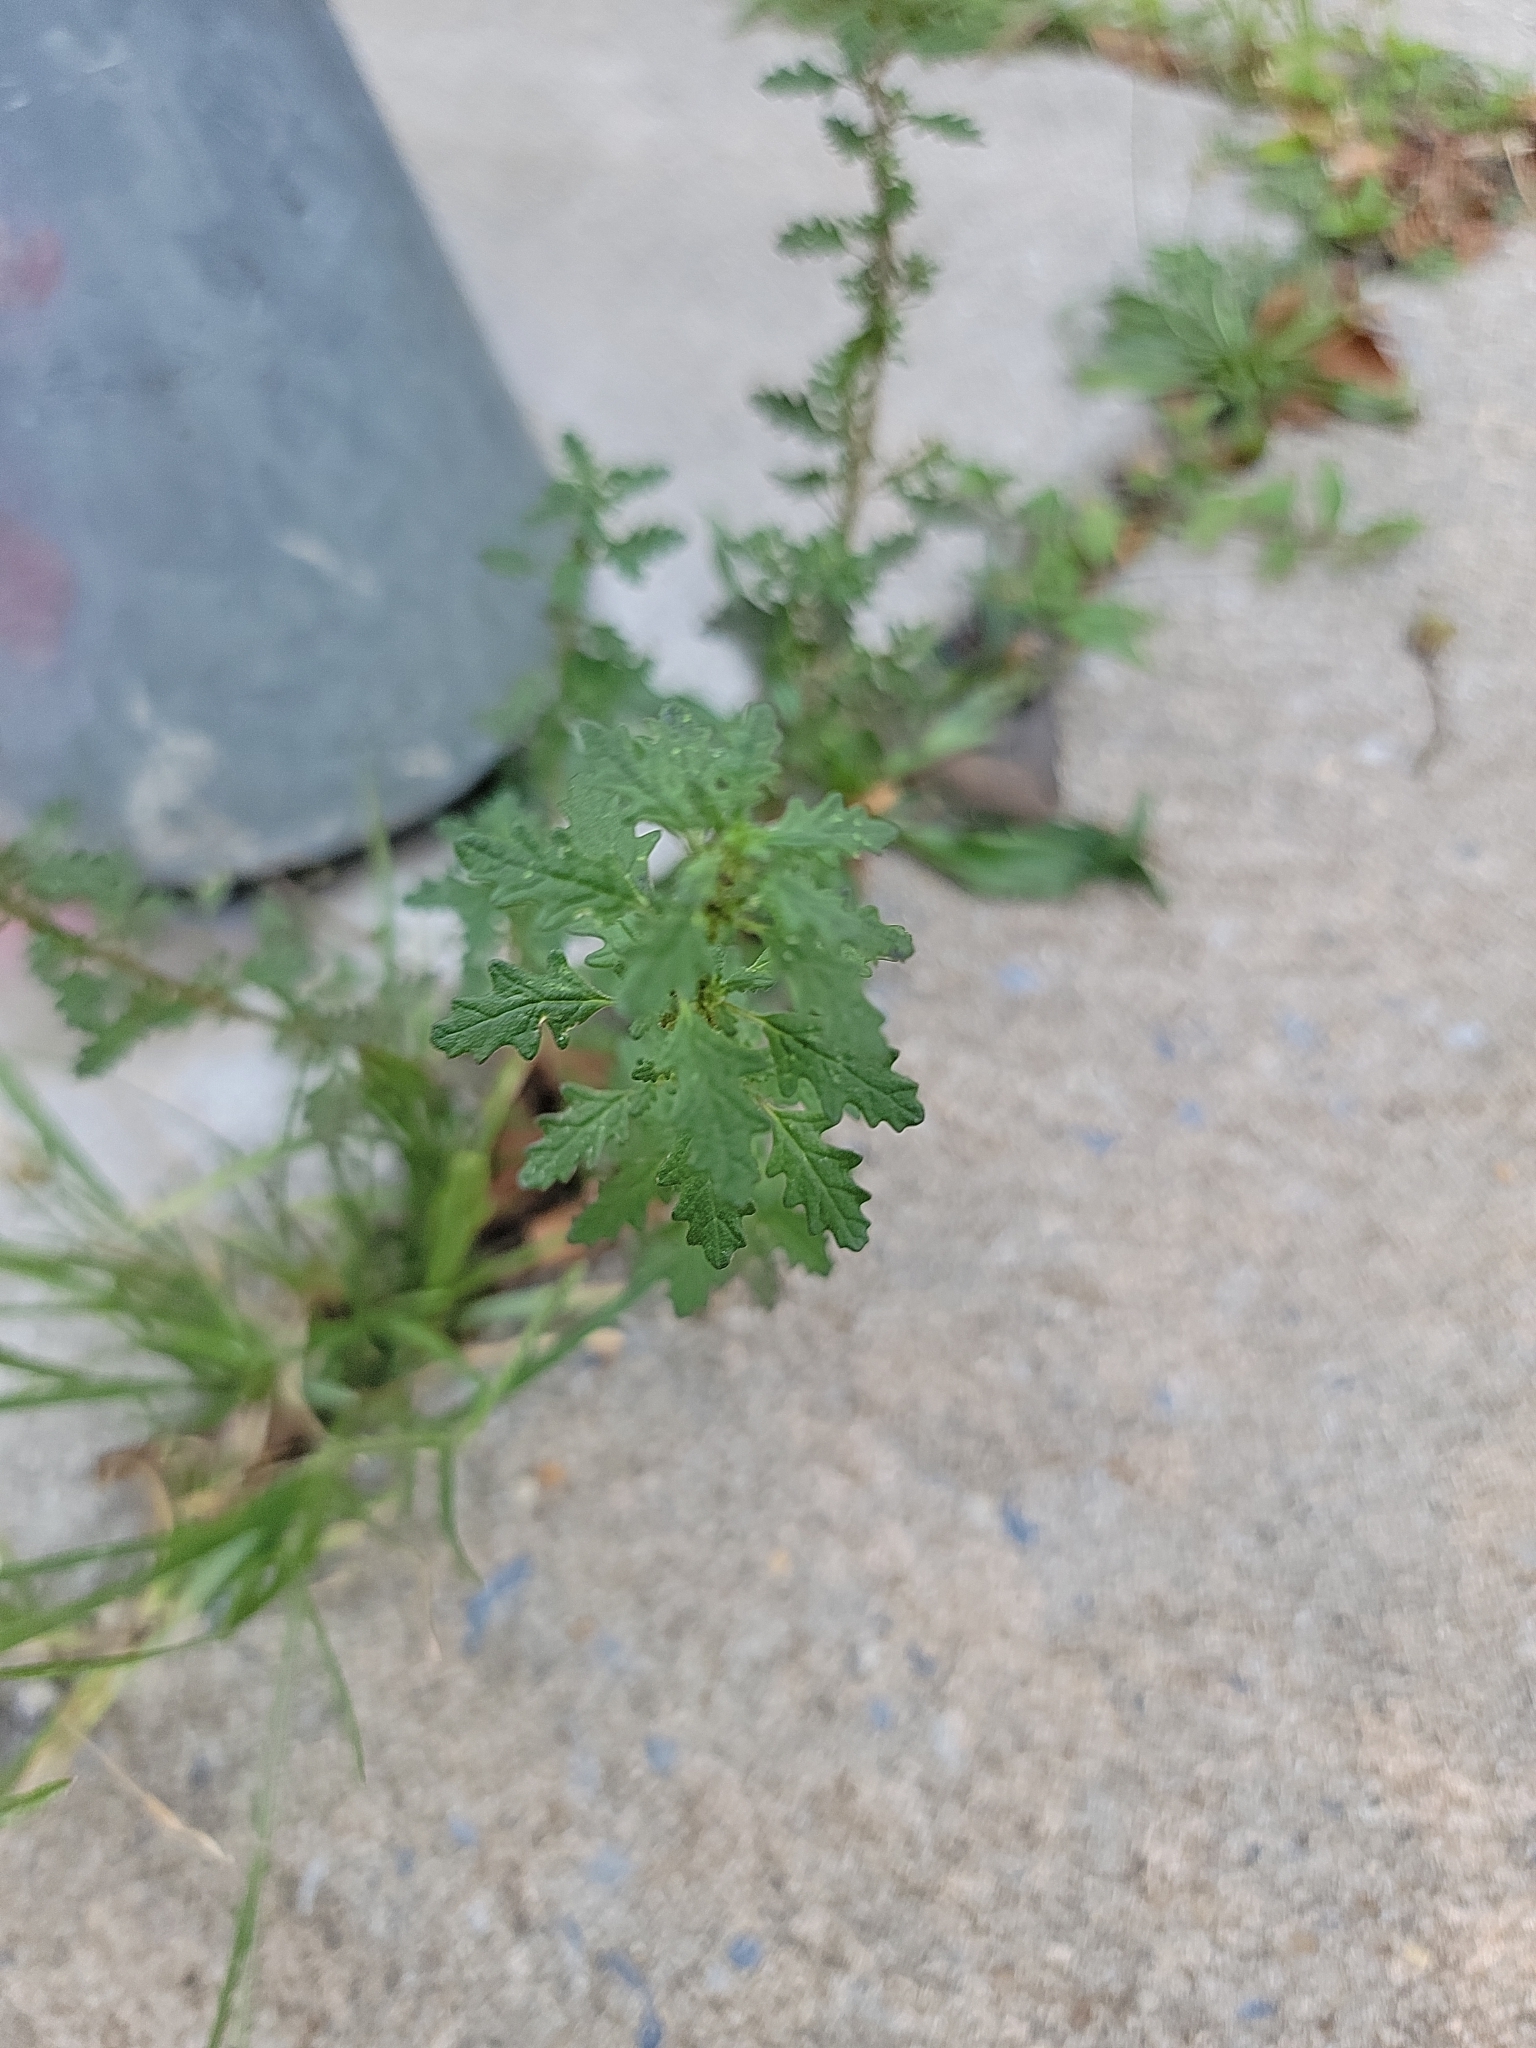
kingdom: Plantae
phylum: Tracheophyta
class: Magnoliopsida
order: Caryophyllales
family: Amaranthaceae
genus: Dysphania
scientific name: Dysphania pumilio
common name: Clammy goosefoot
